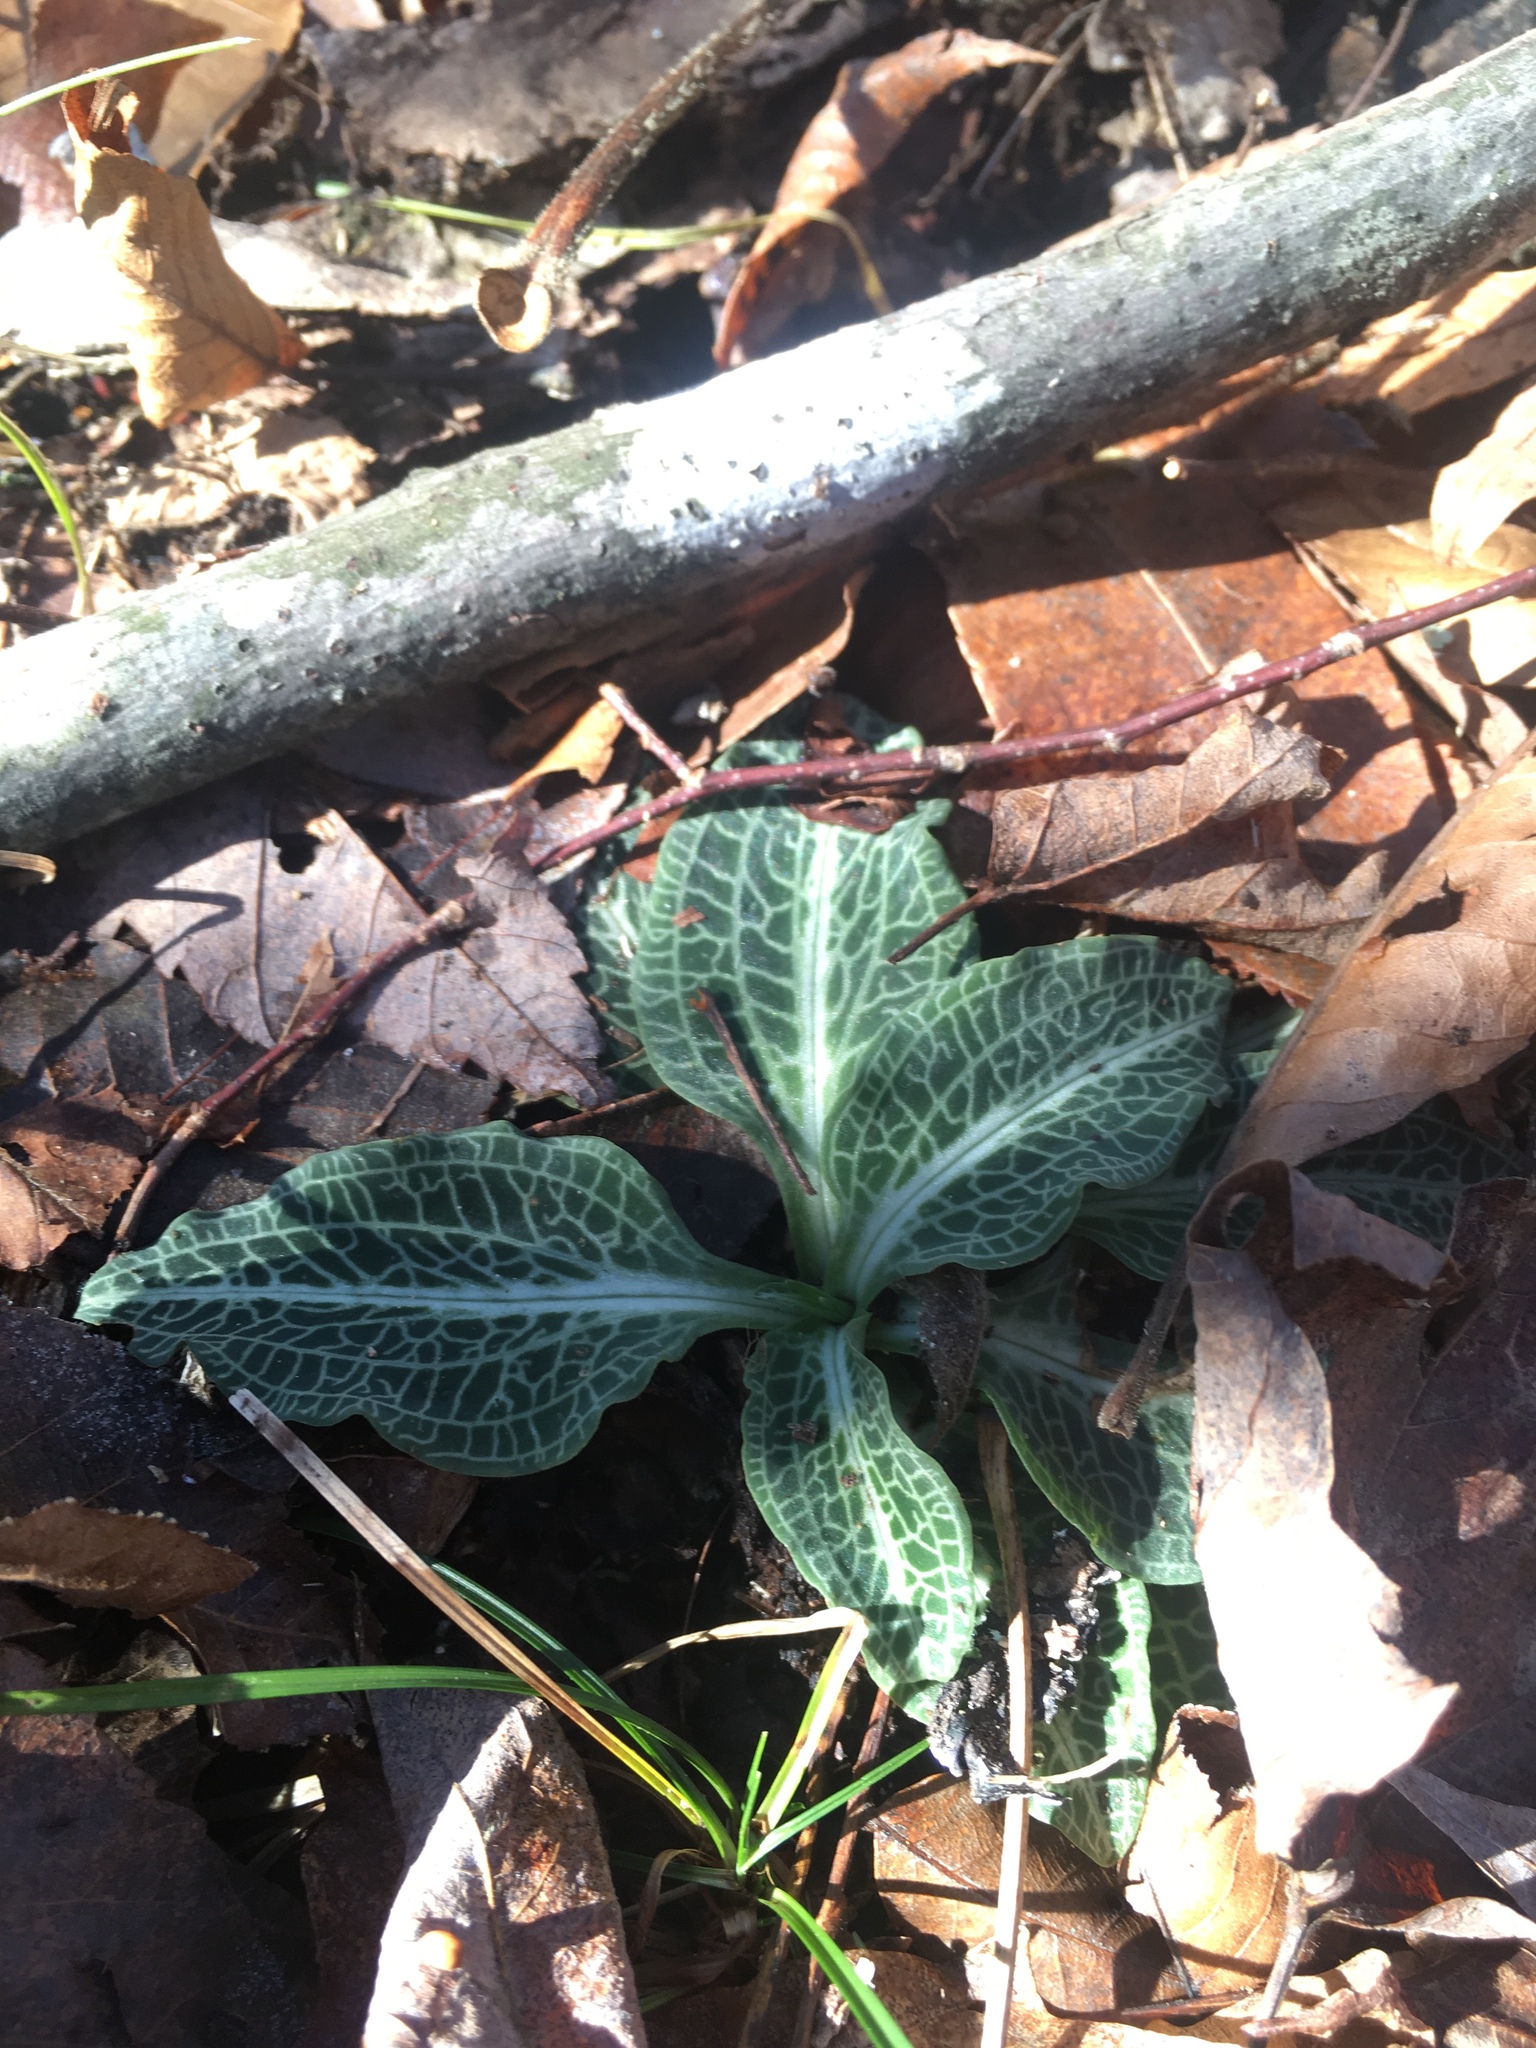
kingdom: Plantae
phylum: Tracheophyta
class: Liliopsida
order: Asparagales
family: Orchidaceae
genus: Goodyera
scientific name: Goodyera pubescens
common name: Downy rattlesnake-plantain
